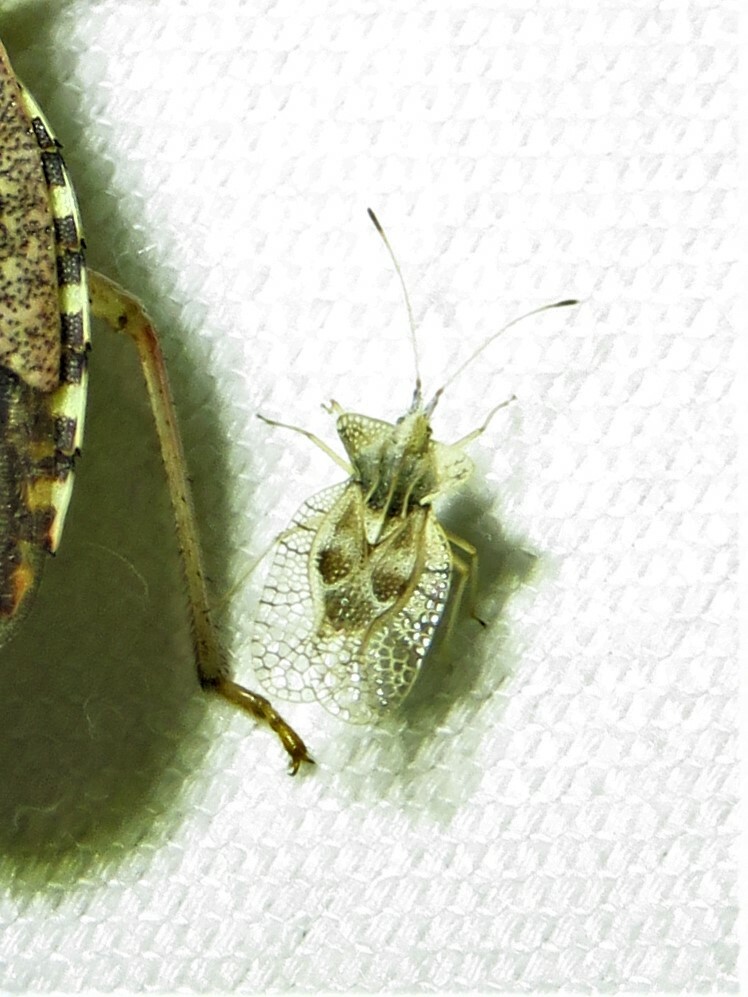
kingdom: Animalia
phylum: Arthropoda
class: Insecta
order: Hemiptera
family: Tingidae
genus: Gargaphia
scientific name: Gargaphia solani
